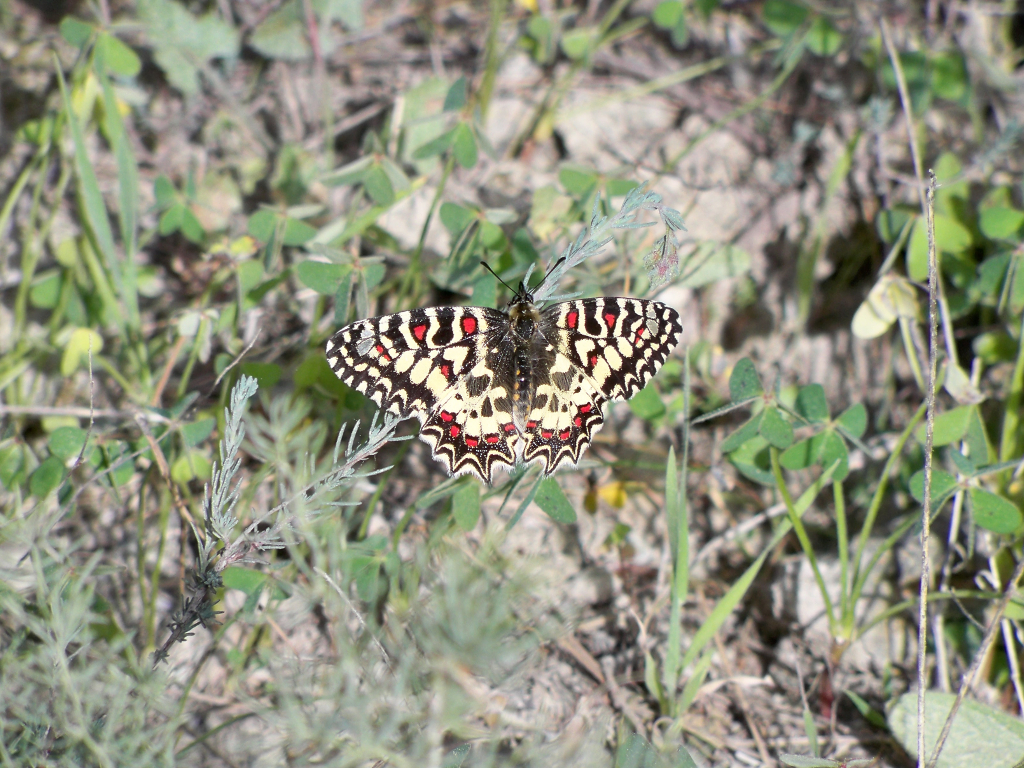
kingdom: Animalia
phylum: Arthropoda
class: Insecta
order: Lepidoptera
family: Papilionidae
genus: Zerynthia
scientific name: Zerynthia rumina
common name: Spanish festoon
